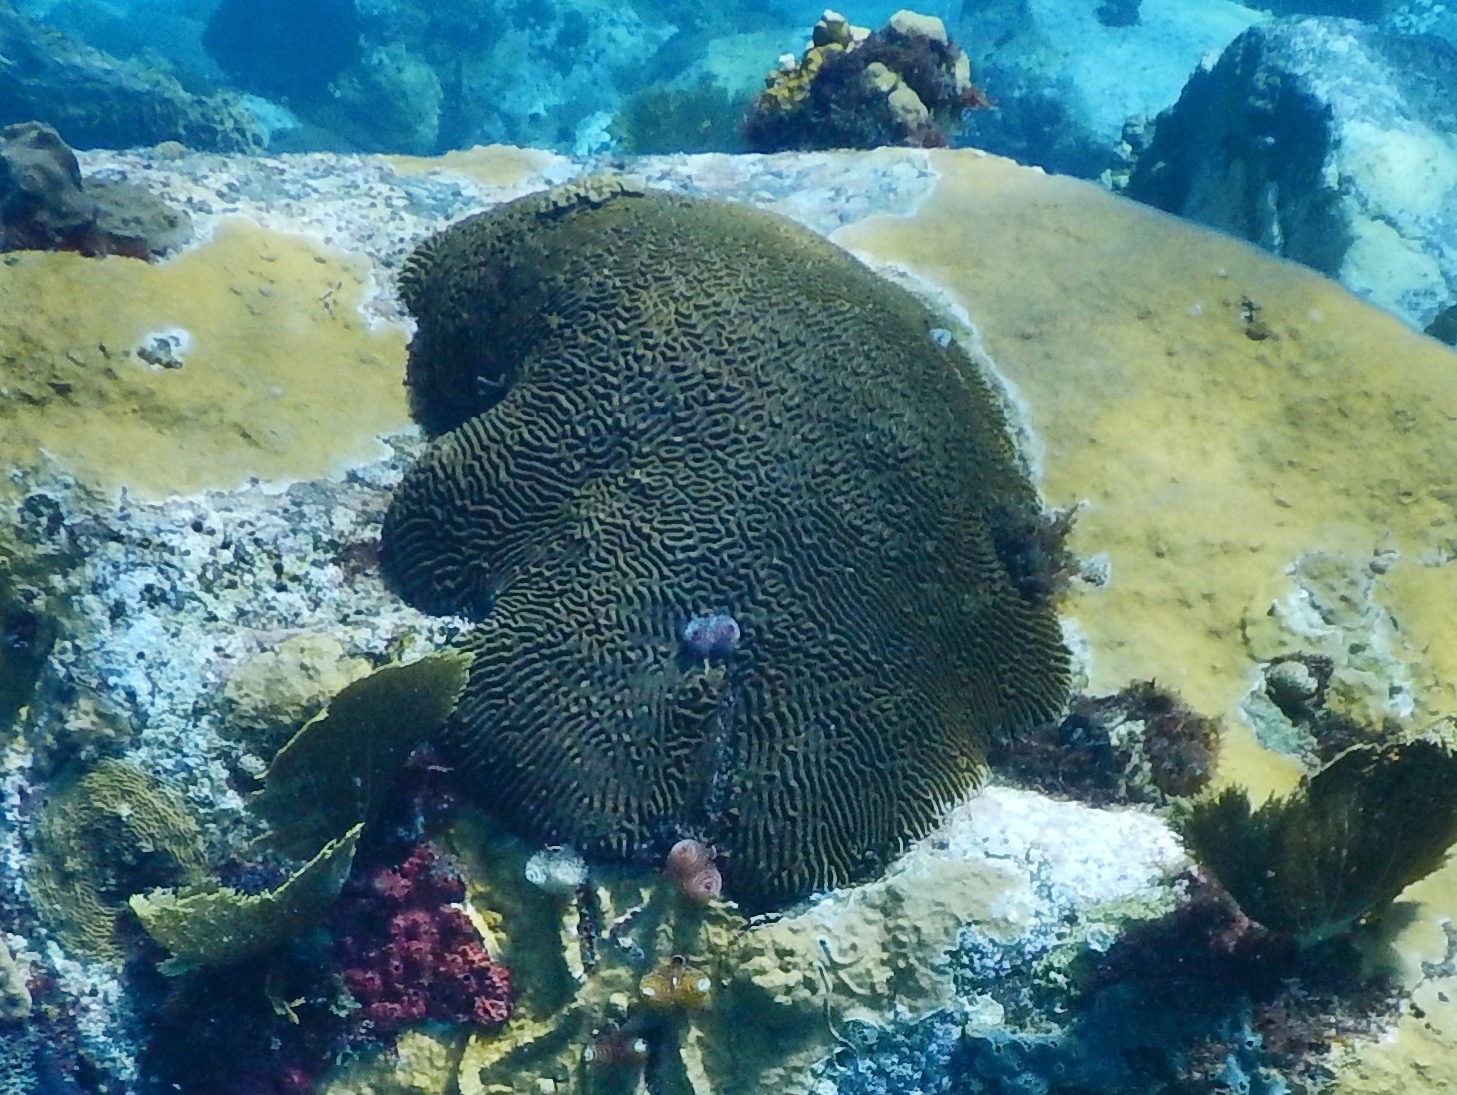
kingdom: Animalia
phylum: Cnidaria
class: Anthozoa
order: Scleractinia
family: Faviidae
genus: Pseudodiploria
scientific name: Pseudodiploria strigosa
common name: Symmetrical brain coral
